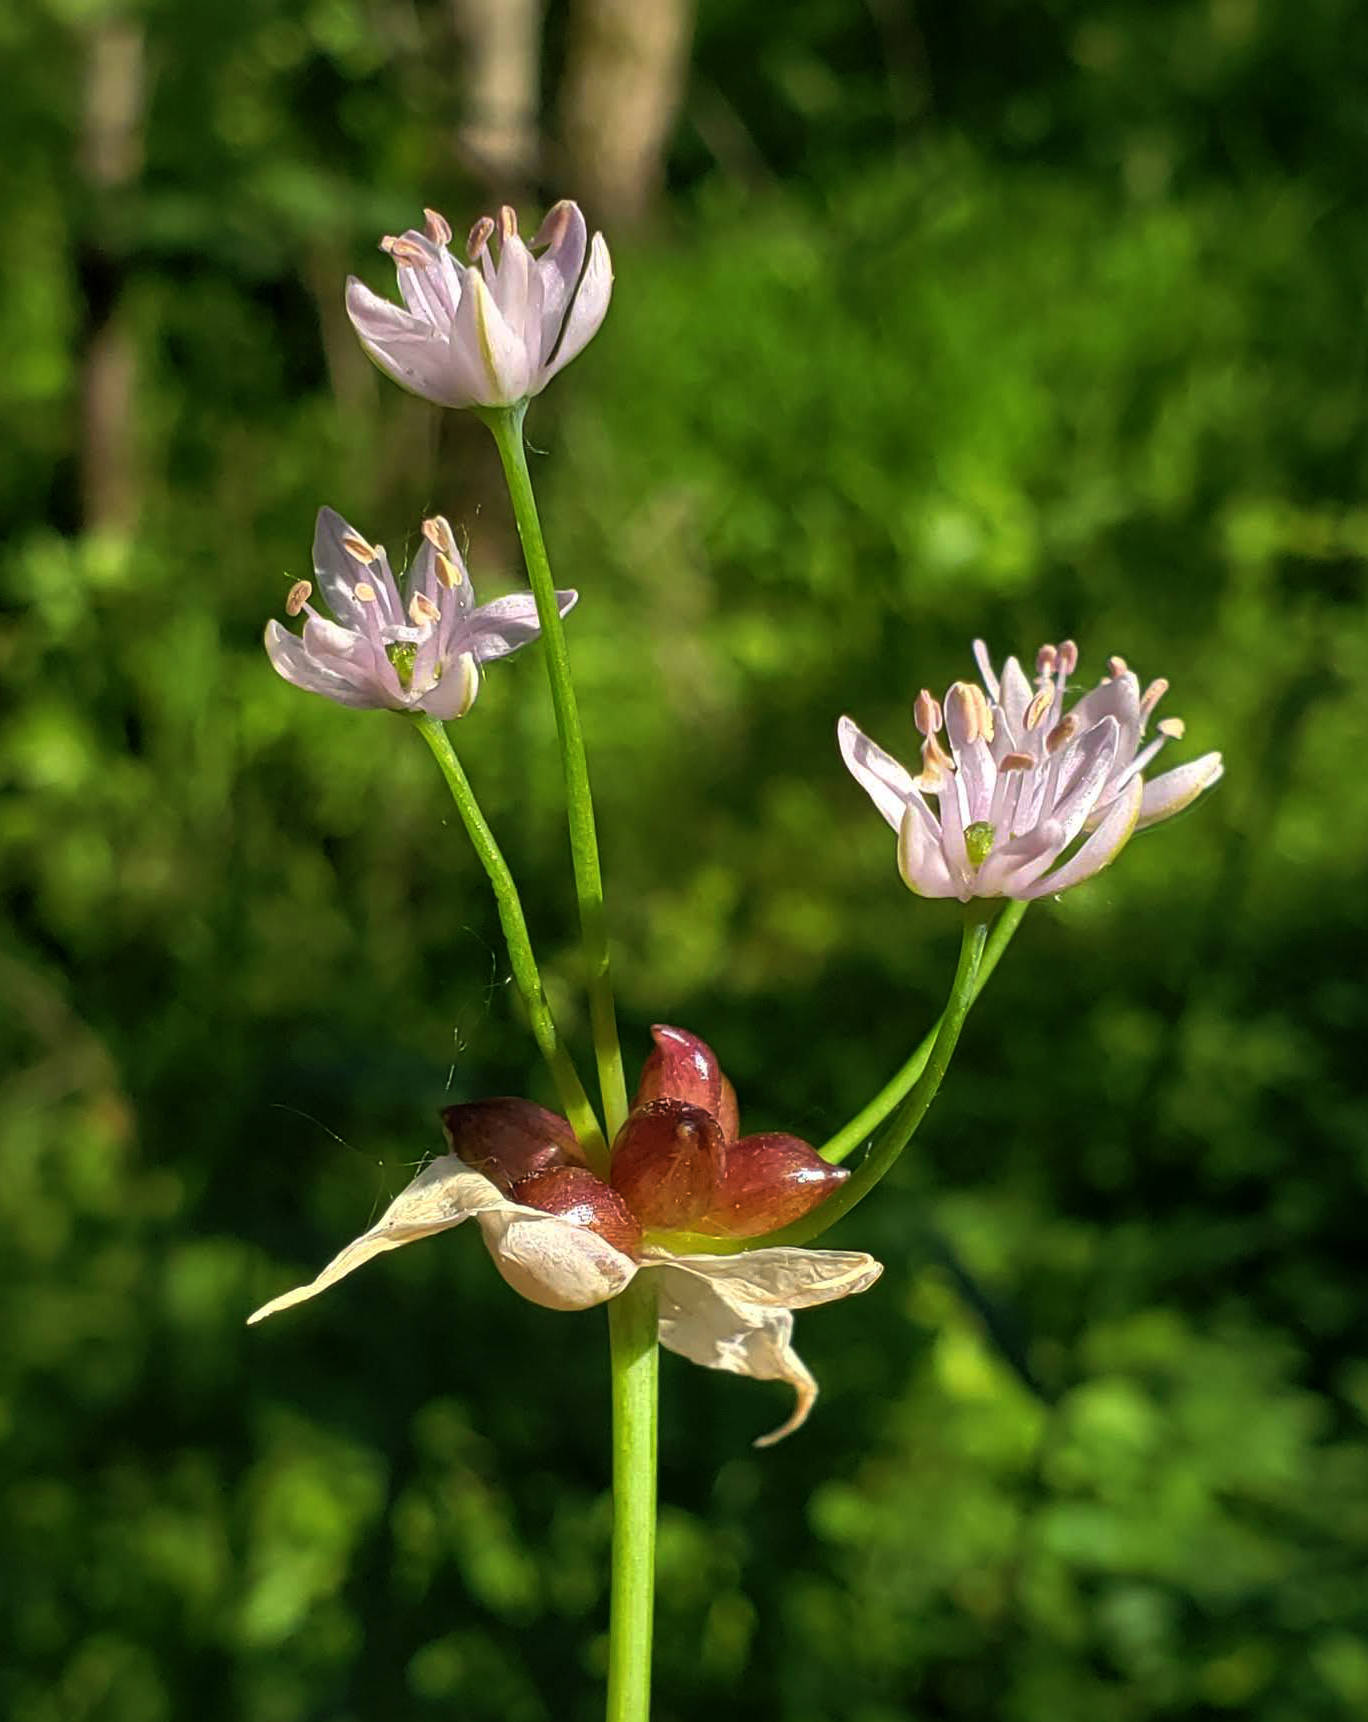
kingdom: Plantae
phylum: Tracheophyta
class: Liliopsida
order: Asparagales
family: Amaryllidaceae
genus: Allium
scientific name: Allium canadense
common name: Meadow garlic
